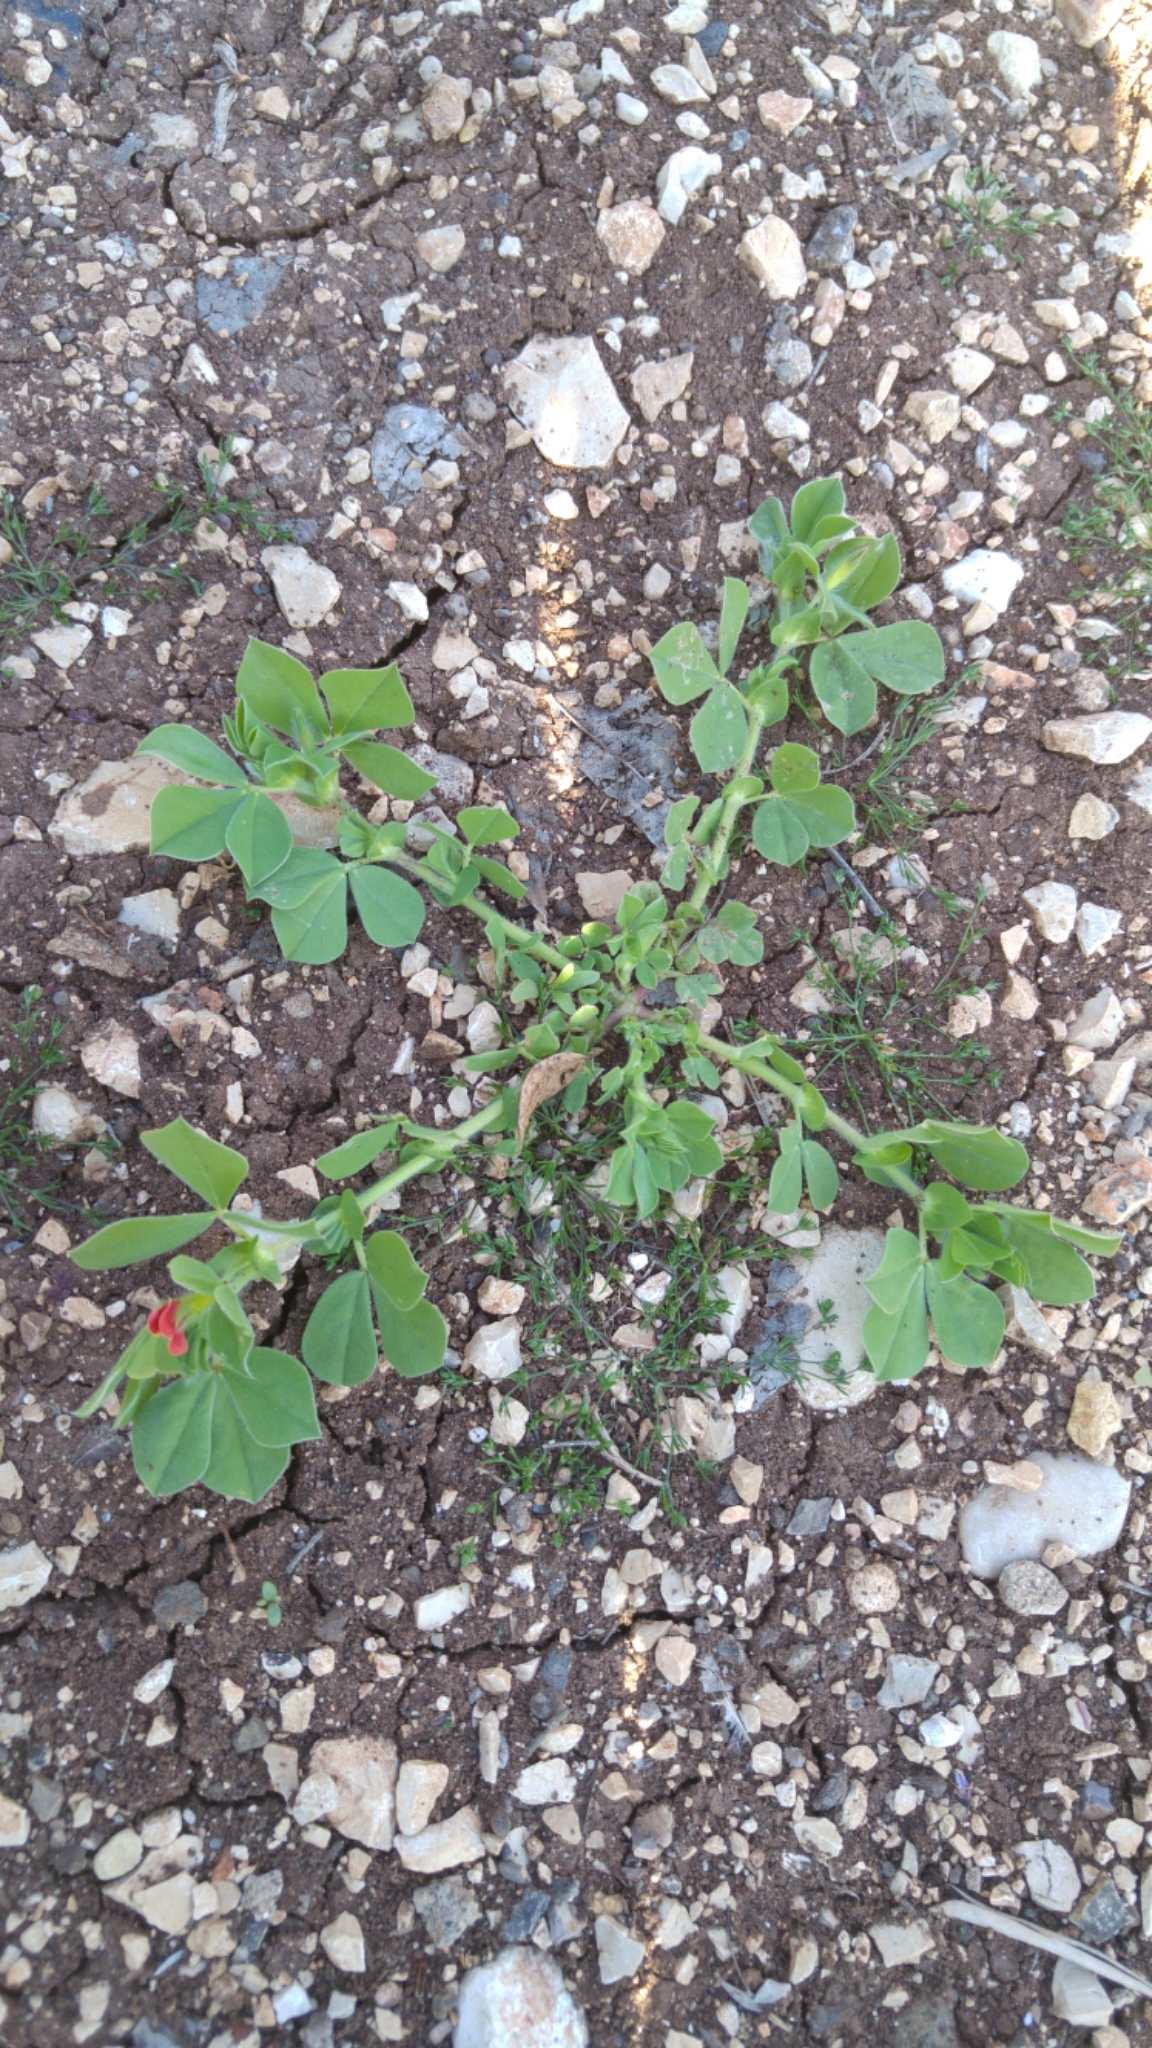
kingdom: Plantae
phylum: Tracheophyta
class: Magnoliopsida
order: Fabales
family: Fabaceae
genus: Lotus
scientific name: Lotus tetragonolobus
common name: Asparagus-pea
